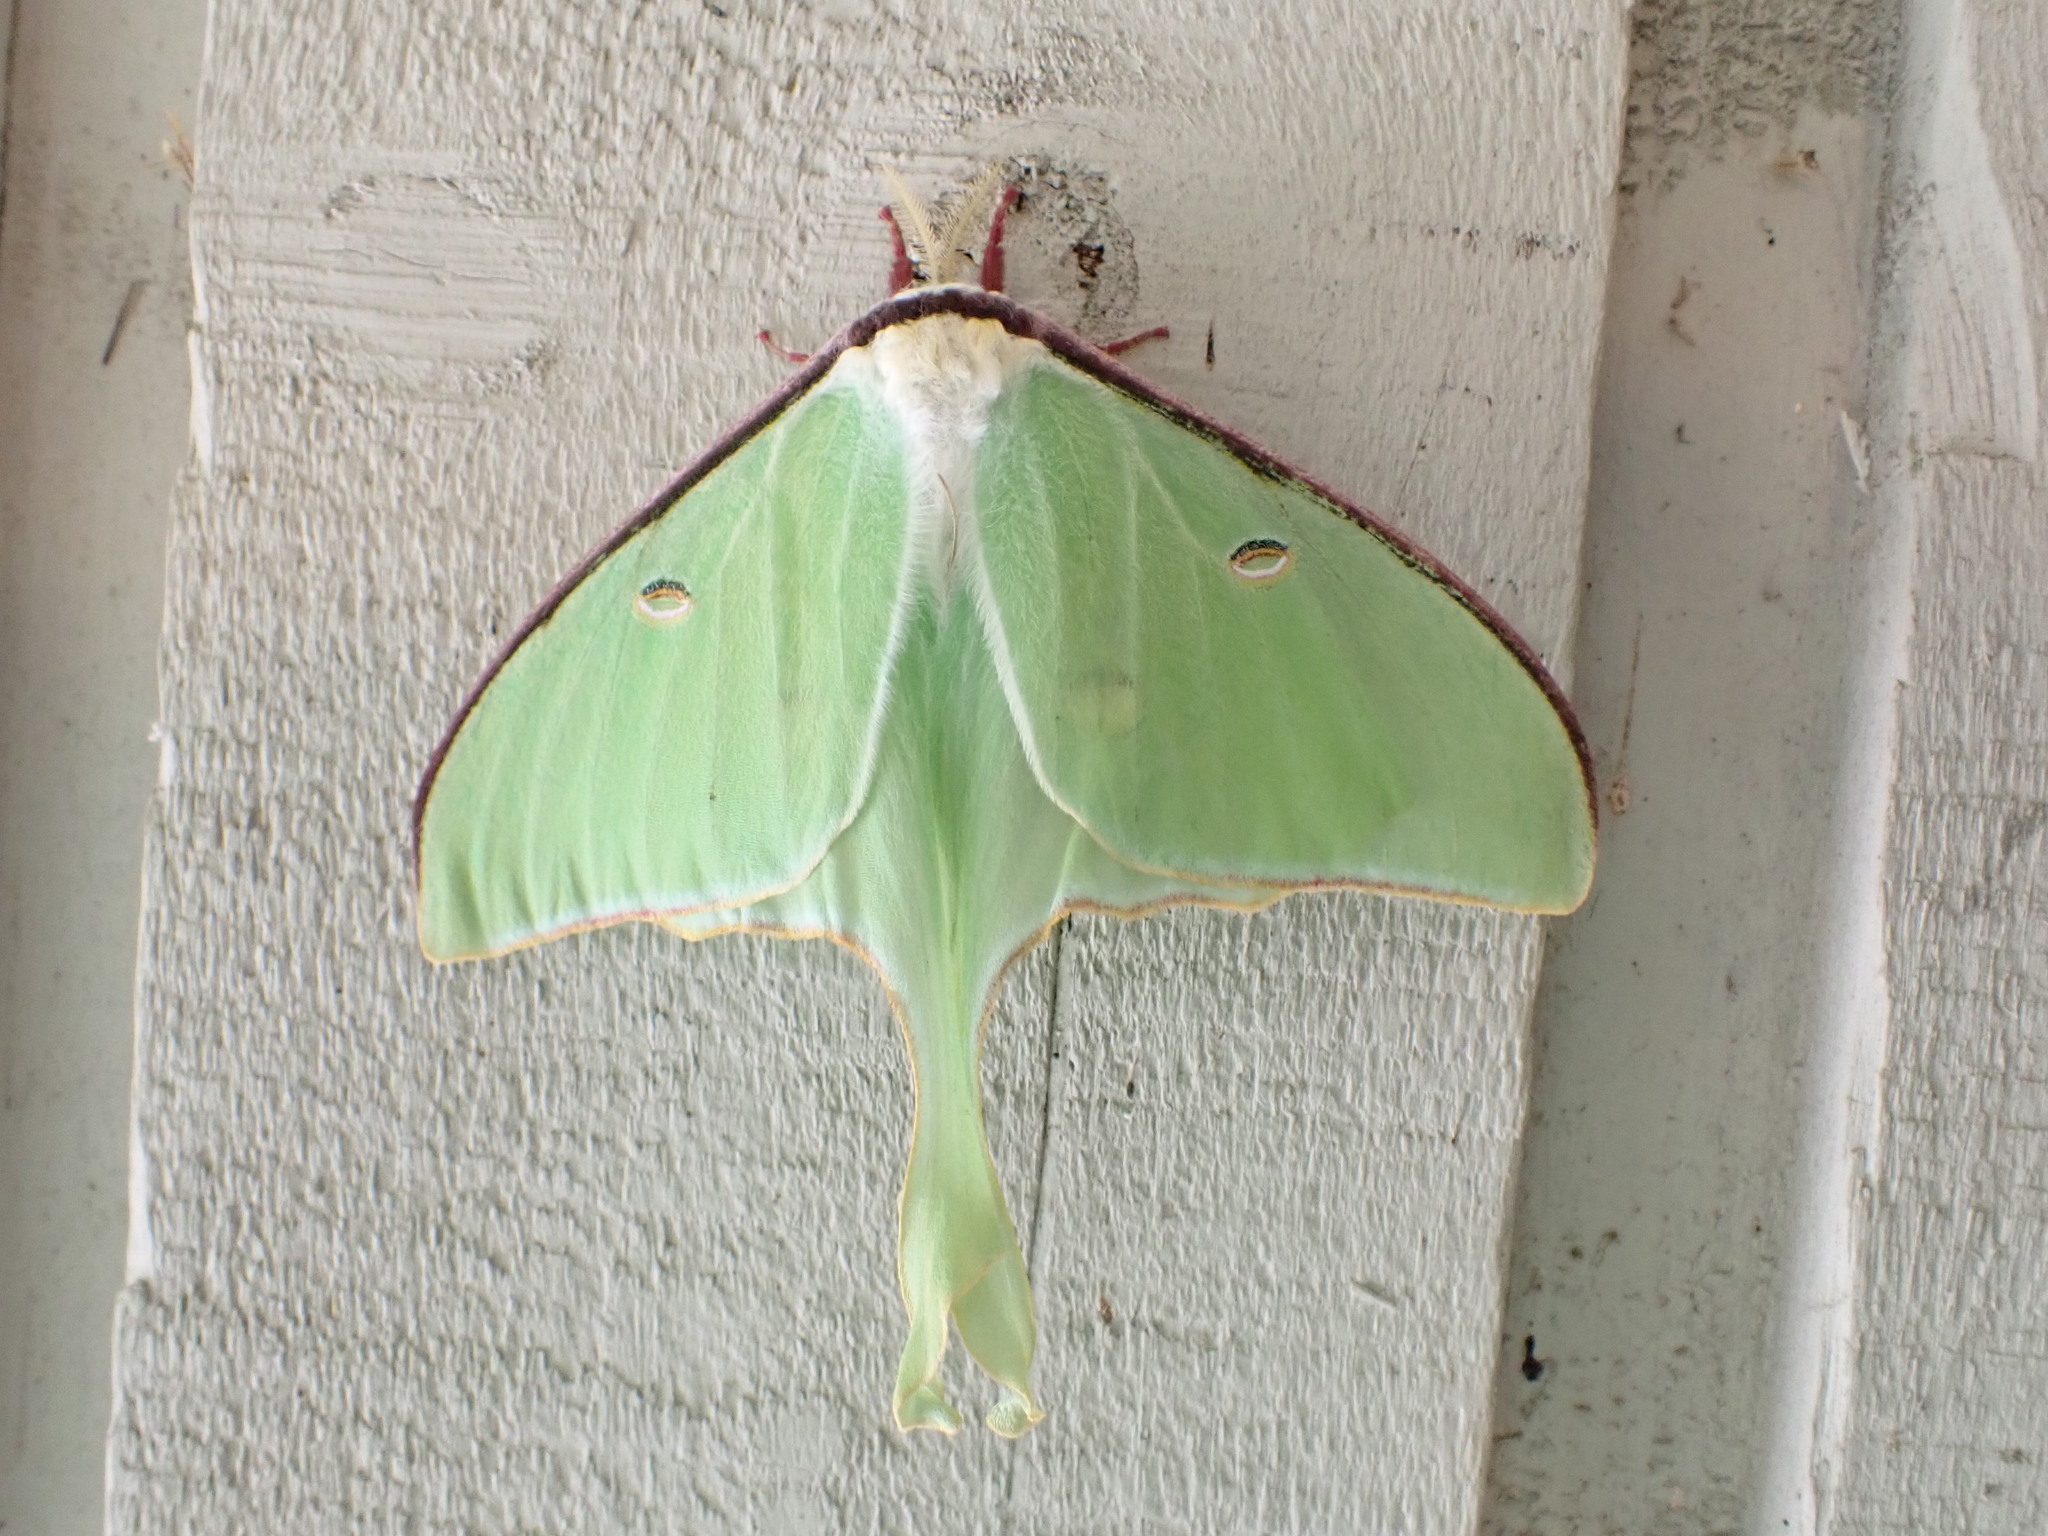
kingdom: Animalia
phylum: Arthropoda
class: Insecta
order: Lepidoptera
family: Saturniidae
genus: Actias
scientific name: Actias luna
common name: Luna moth
